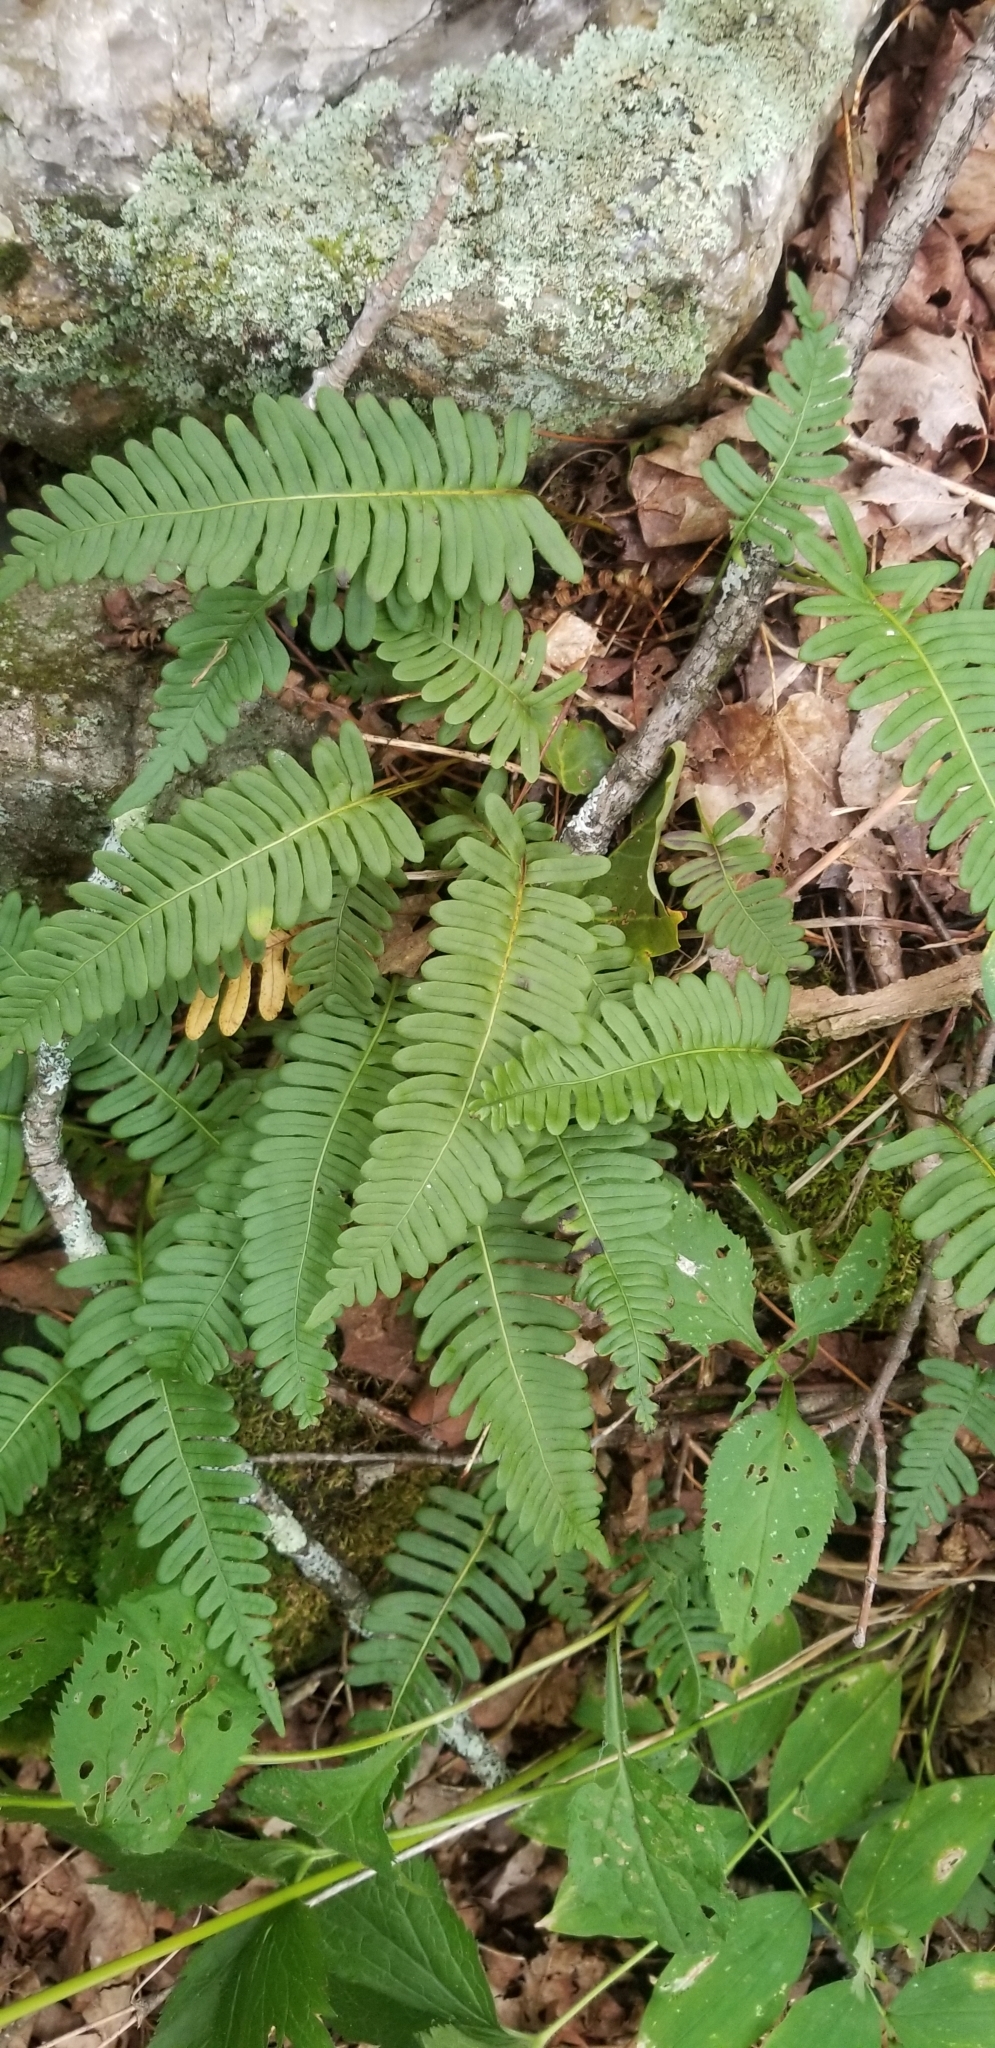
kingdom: Plantae
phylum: Tracheophyta
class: Polypodiopsida
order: Polypodiales
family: Polypodiaceae
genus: Polypodium
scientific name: Polypodium virginianum
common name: American wall fern
